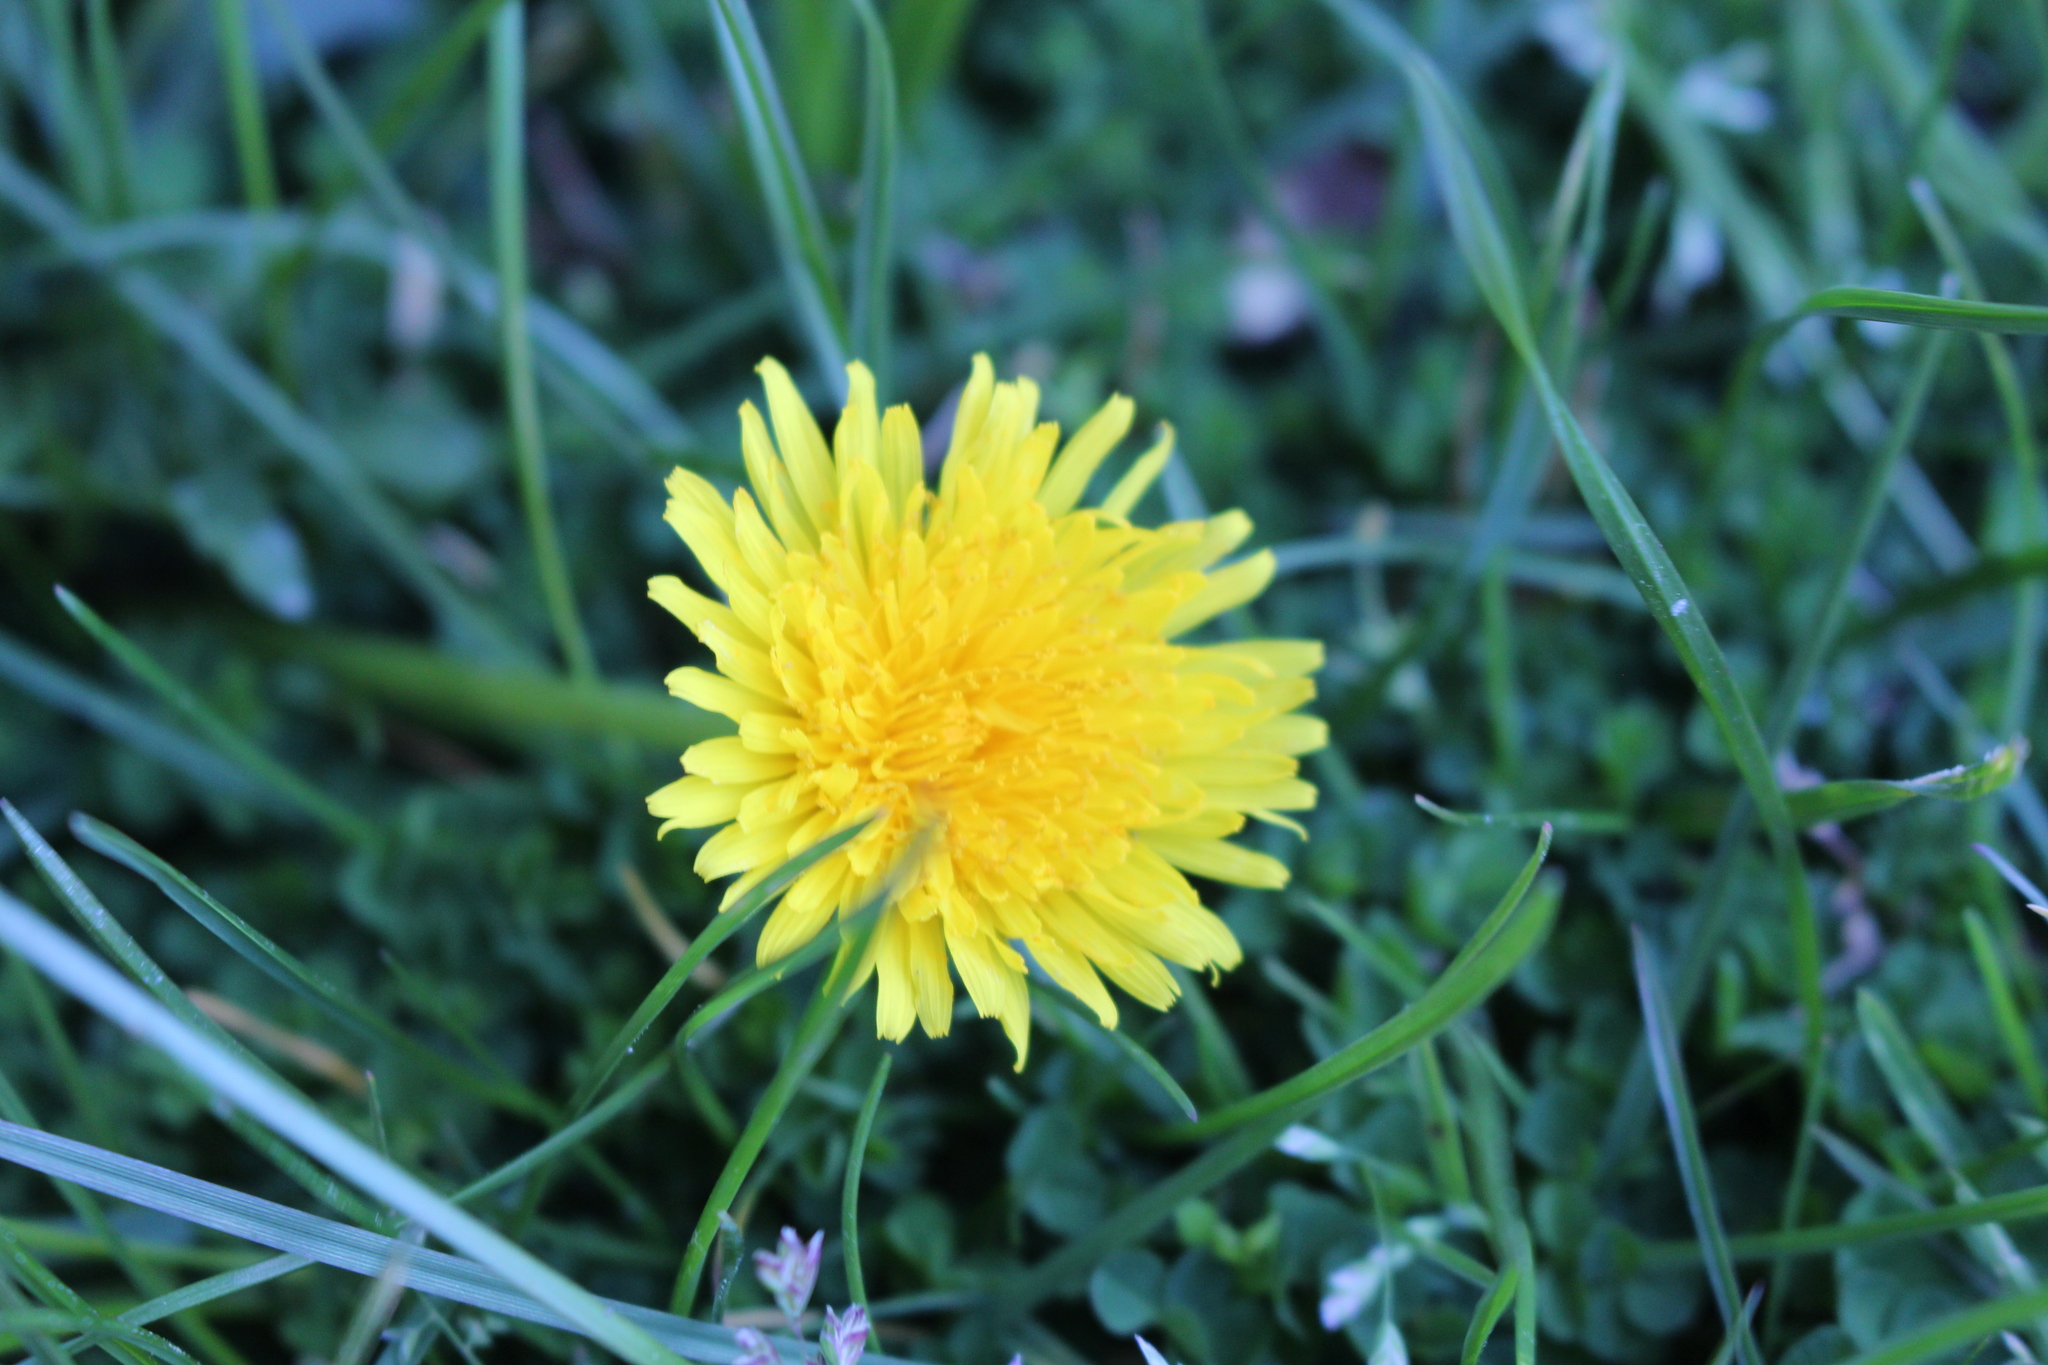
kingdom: Plantae
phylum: Tracheophyta
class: Magnoliopsida
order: Asterales
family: Asteraceae
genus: Taraxacum
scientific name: Taraxacum officinale
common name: Common dandelion
